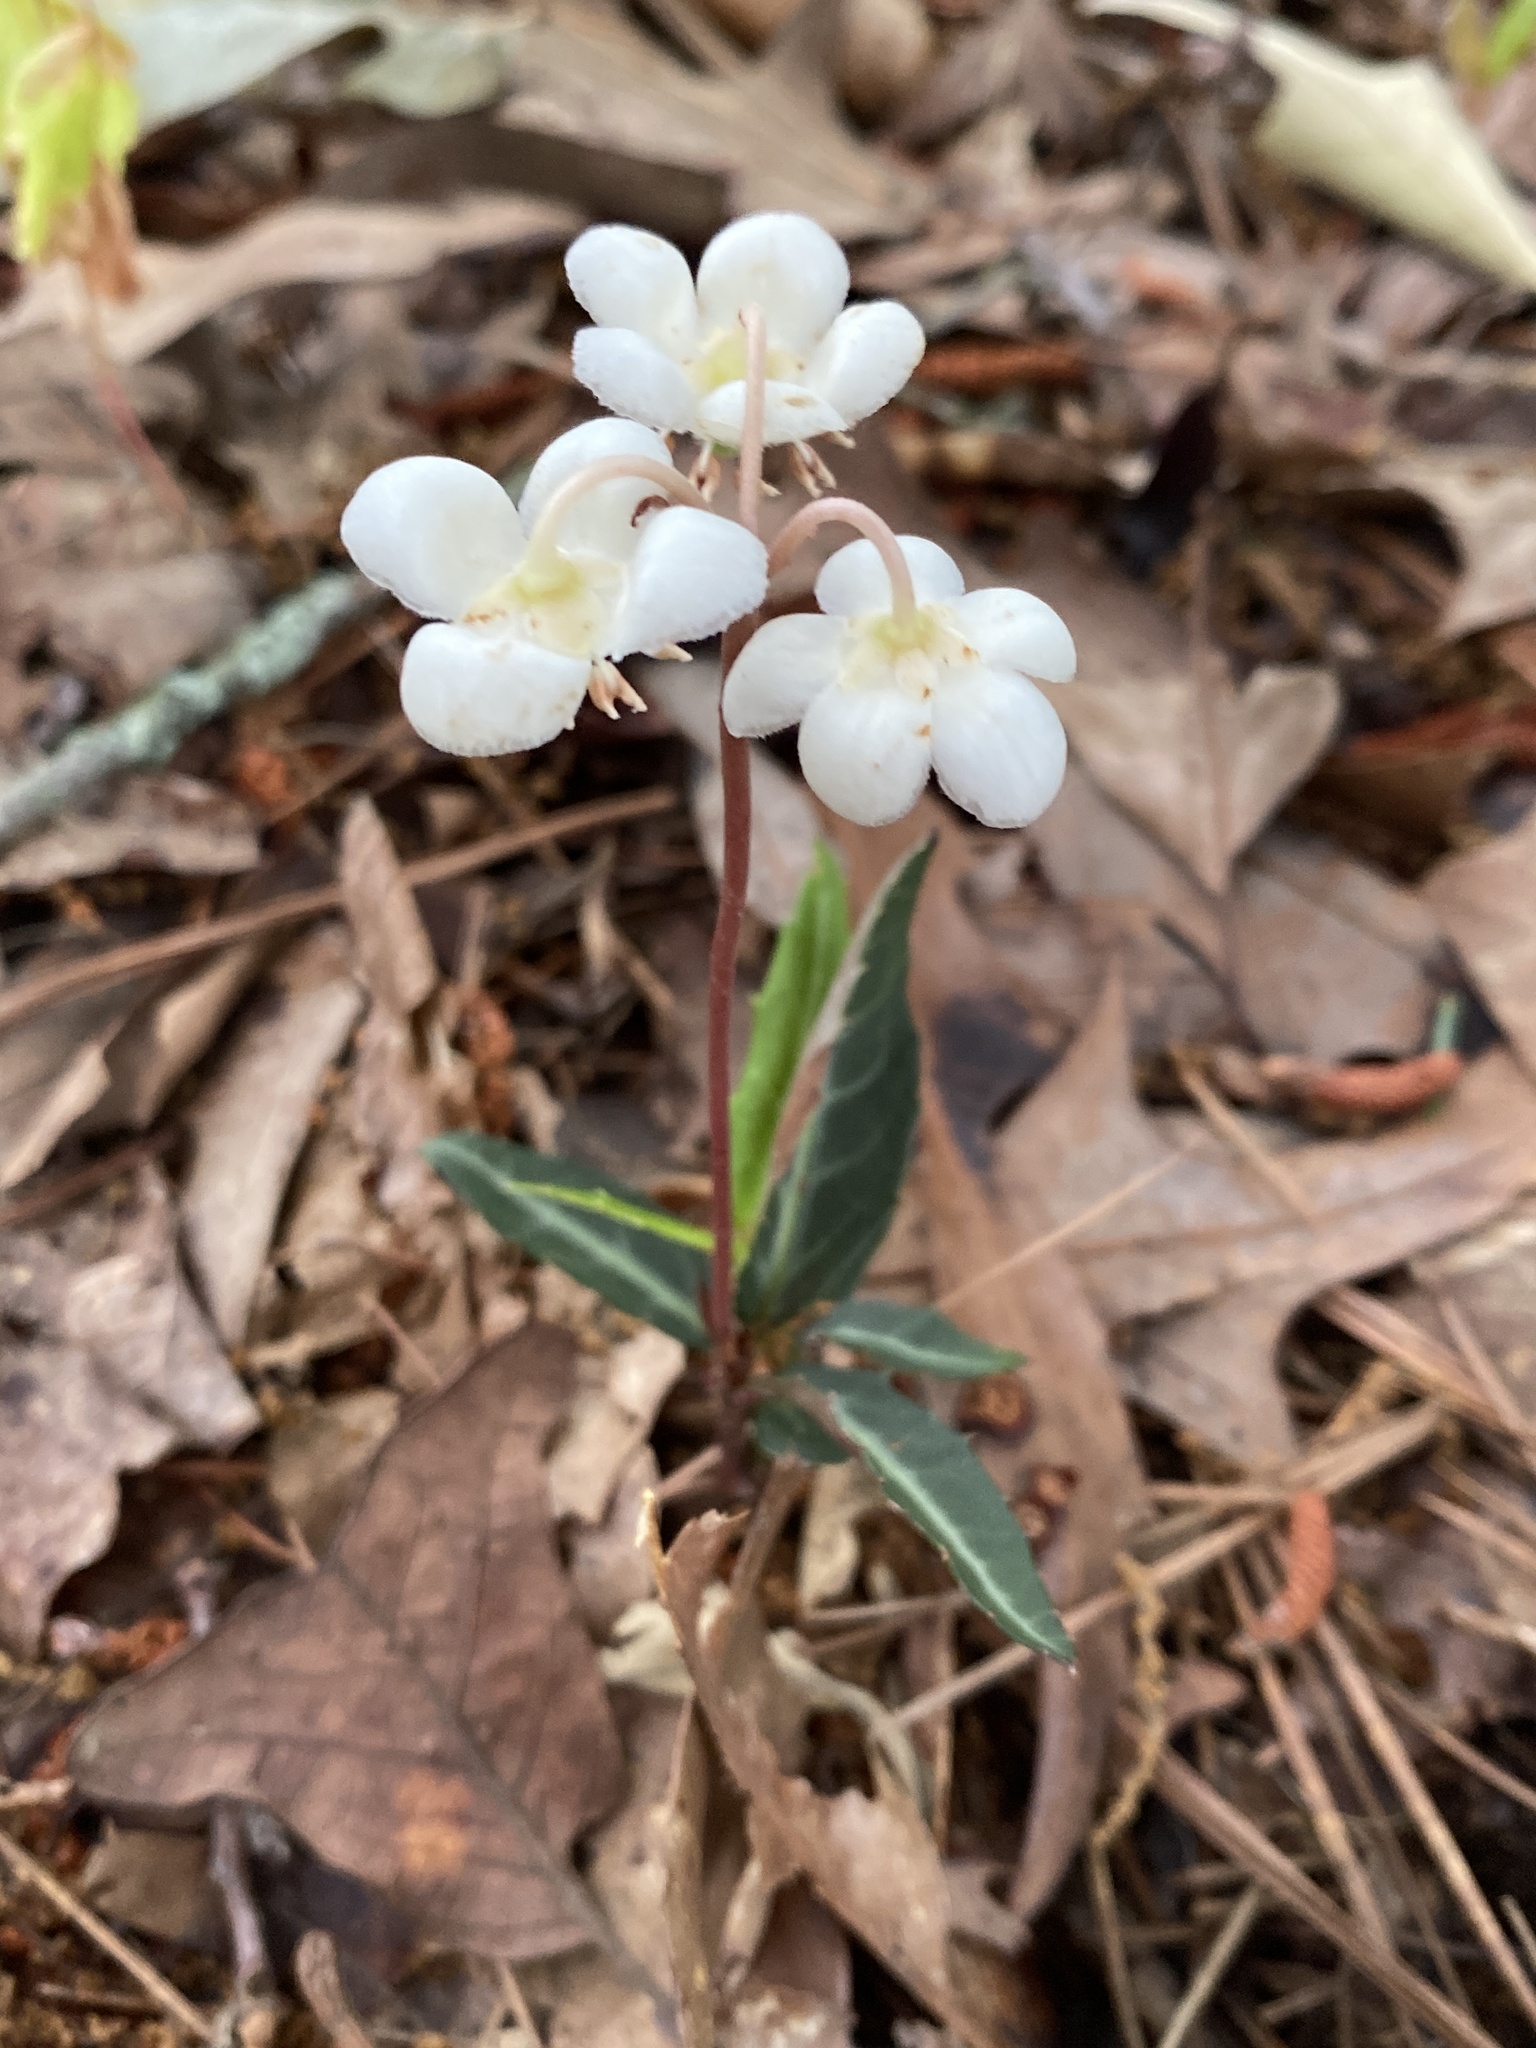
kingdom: Plantae
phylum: Tracheophyta
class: Magnoliopsida
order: Ericales
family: Ericaceae
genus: Chimaphila
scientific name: Chimaphila maculata
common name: Spotted pipsissewa
